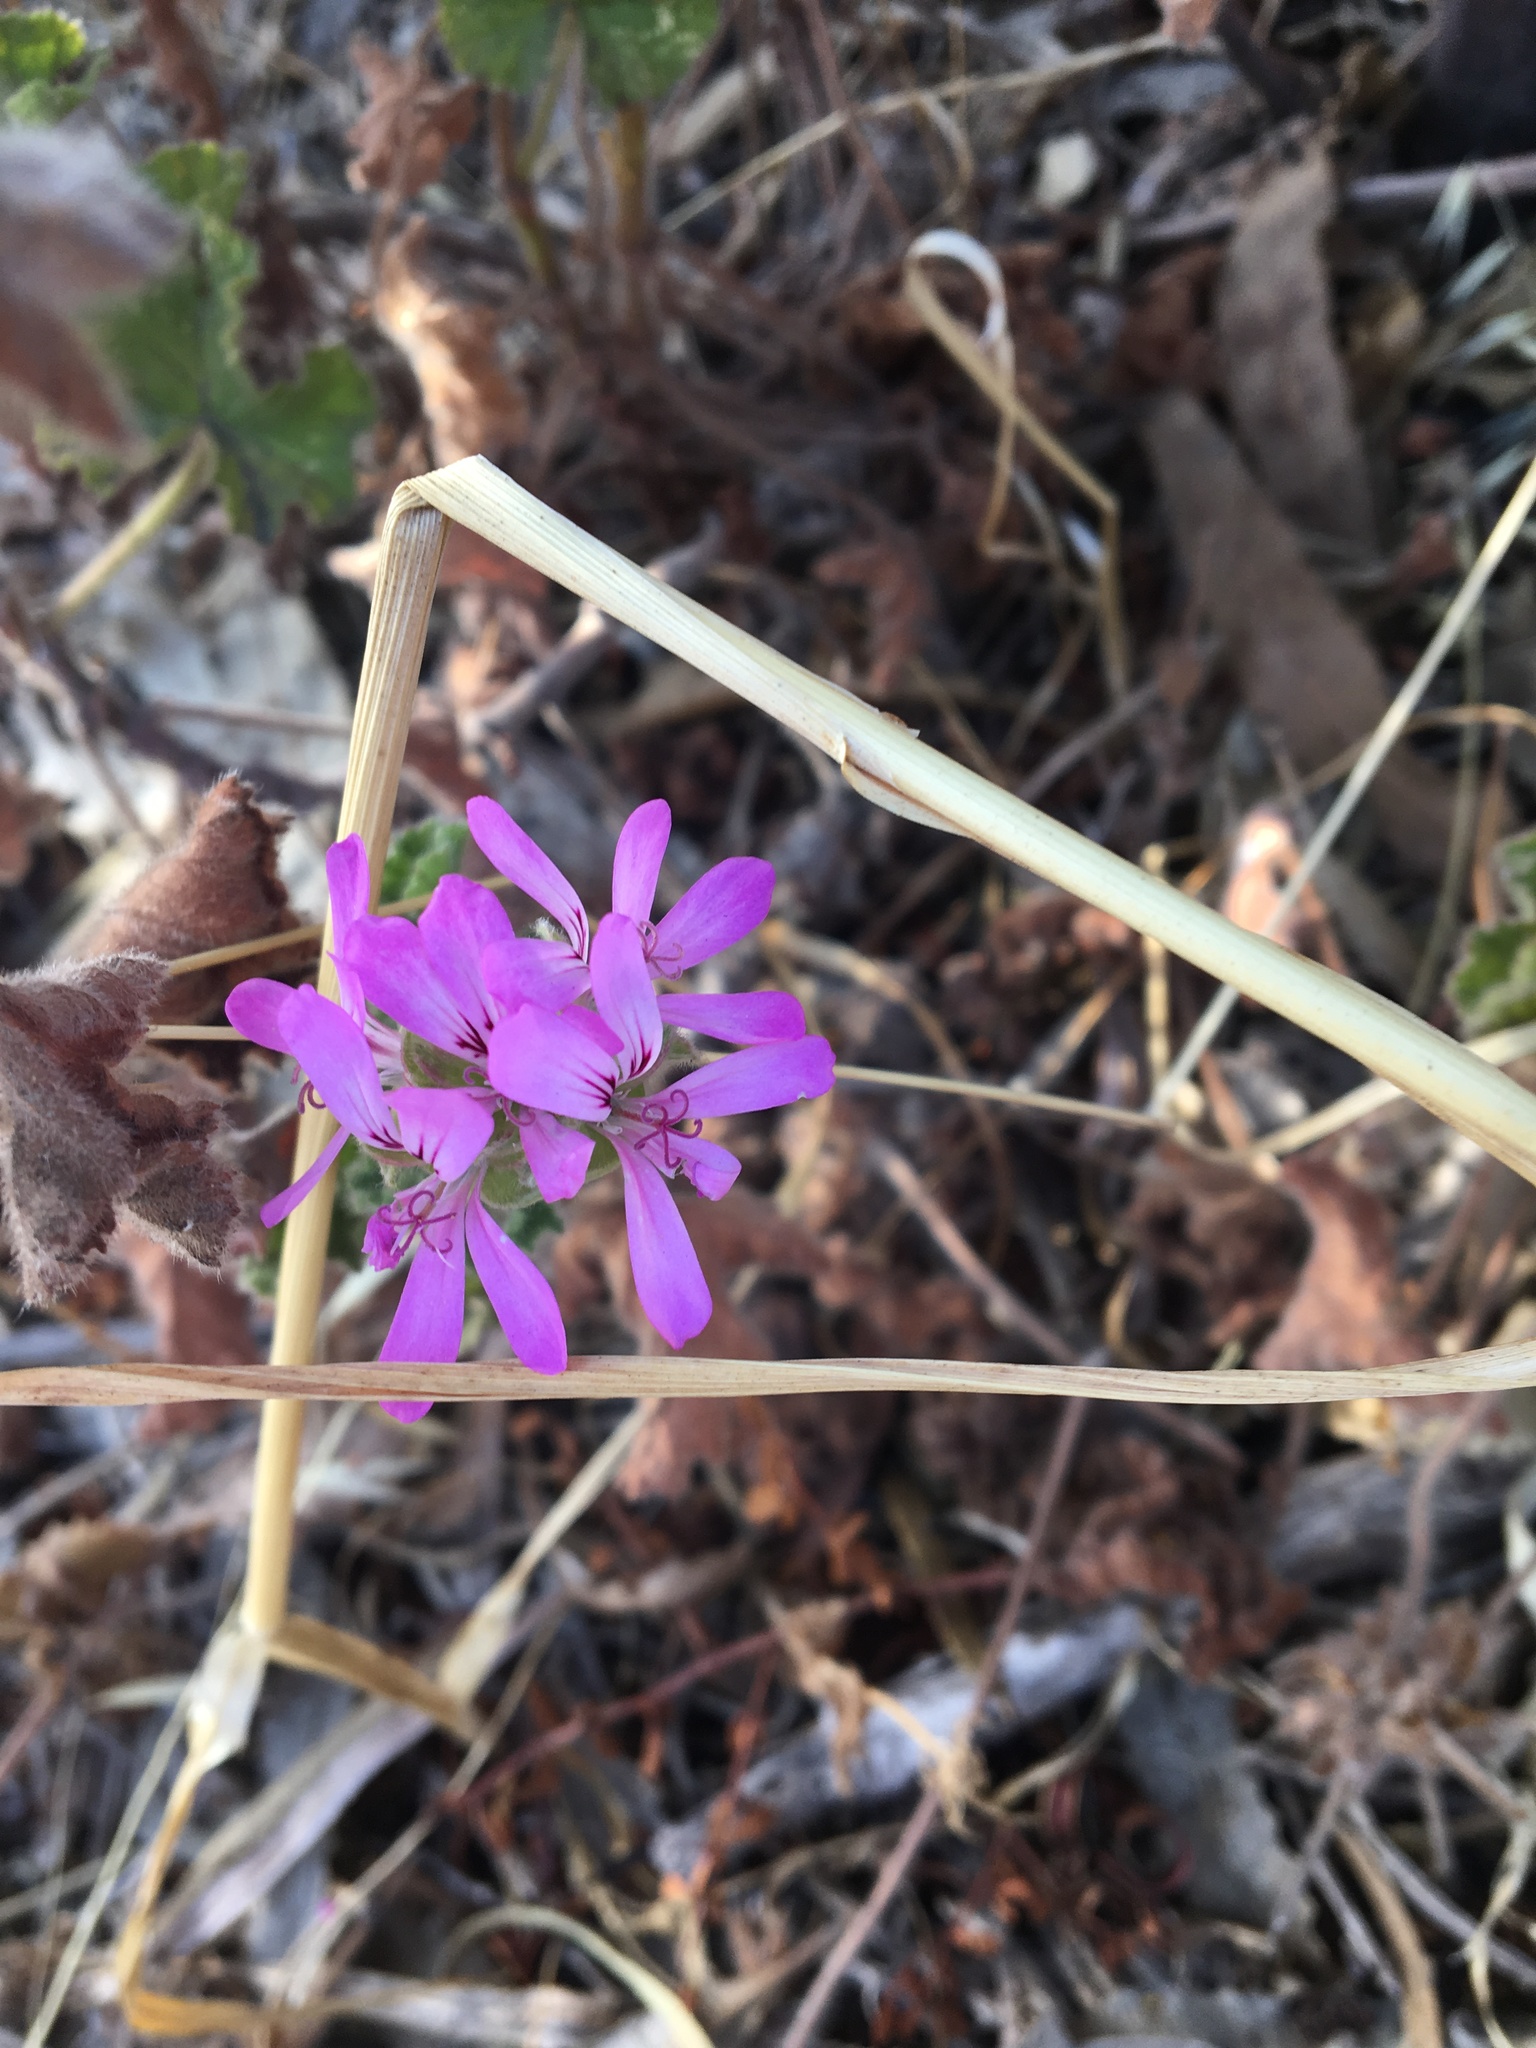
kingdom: Plantae
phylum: Tracheophyta
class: Magnoliopsida
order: Geraniales
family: Geraniaceae
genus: Pelargonium
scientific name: Pelargonium capitatum
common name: Rose scented geranium
